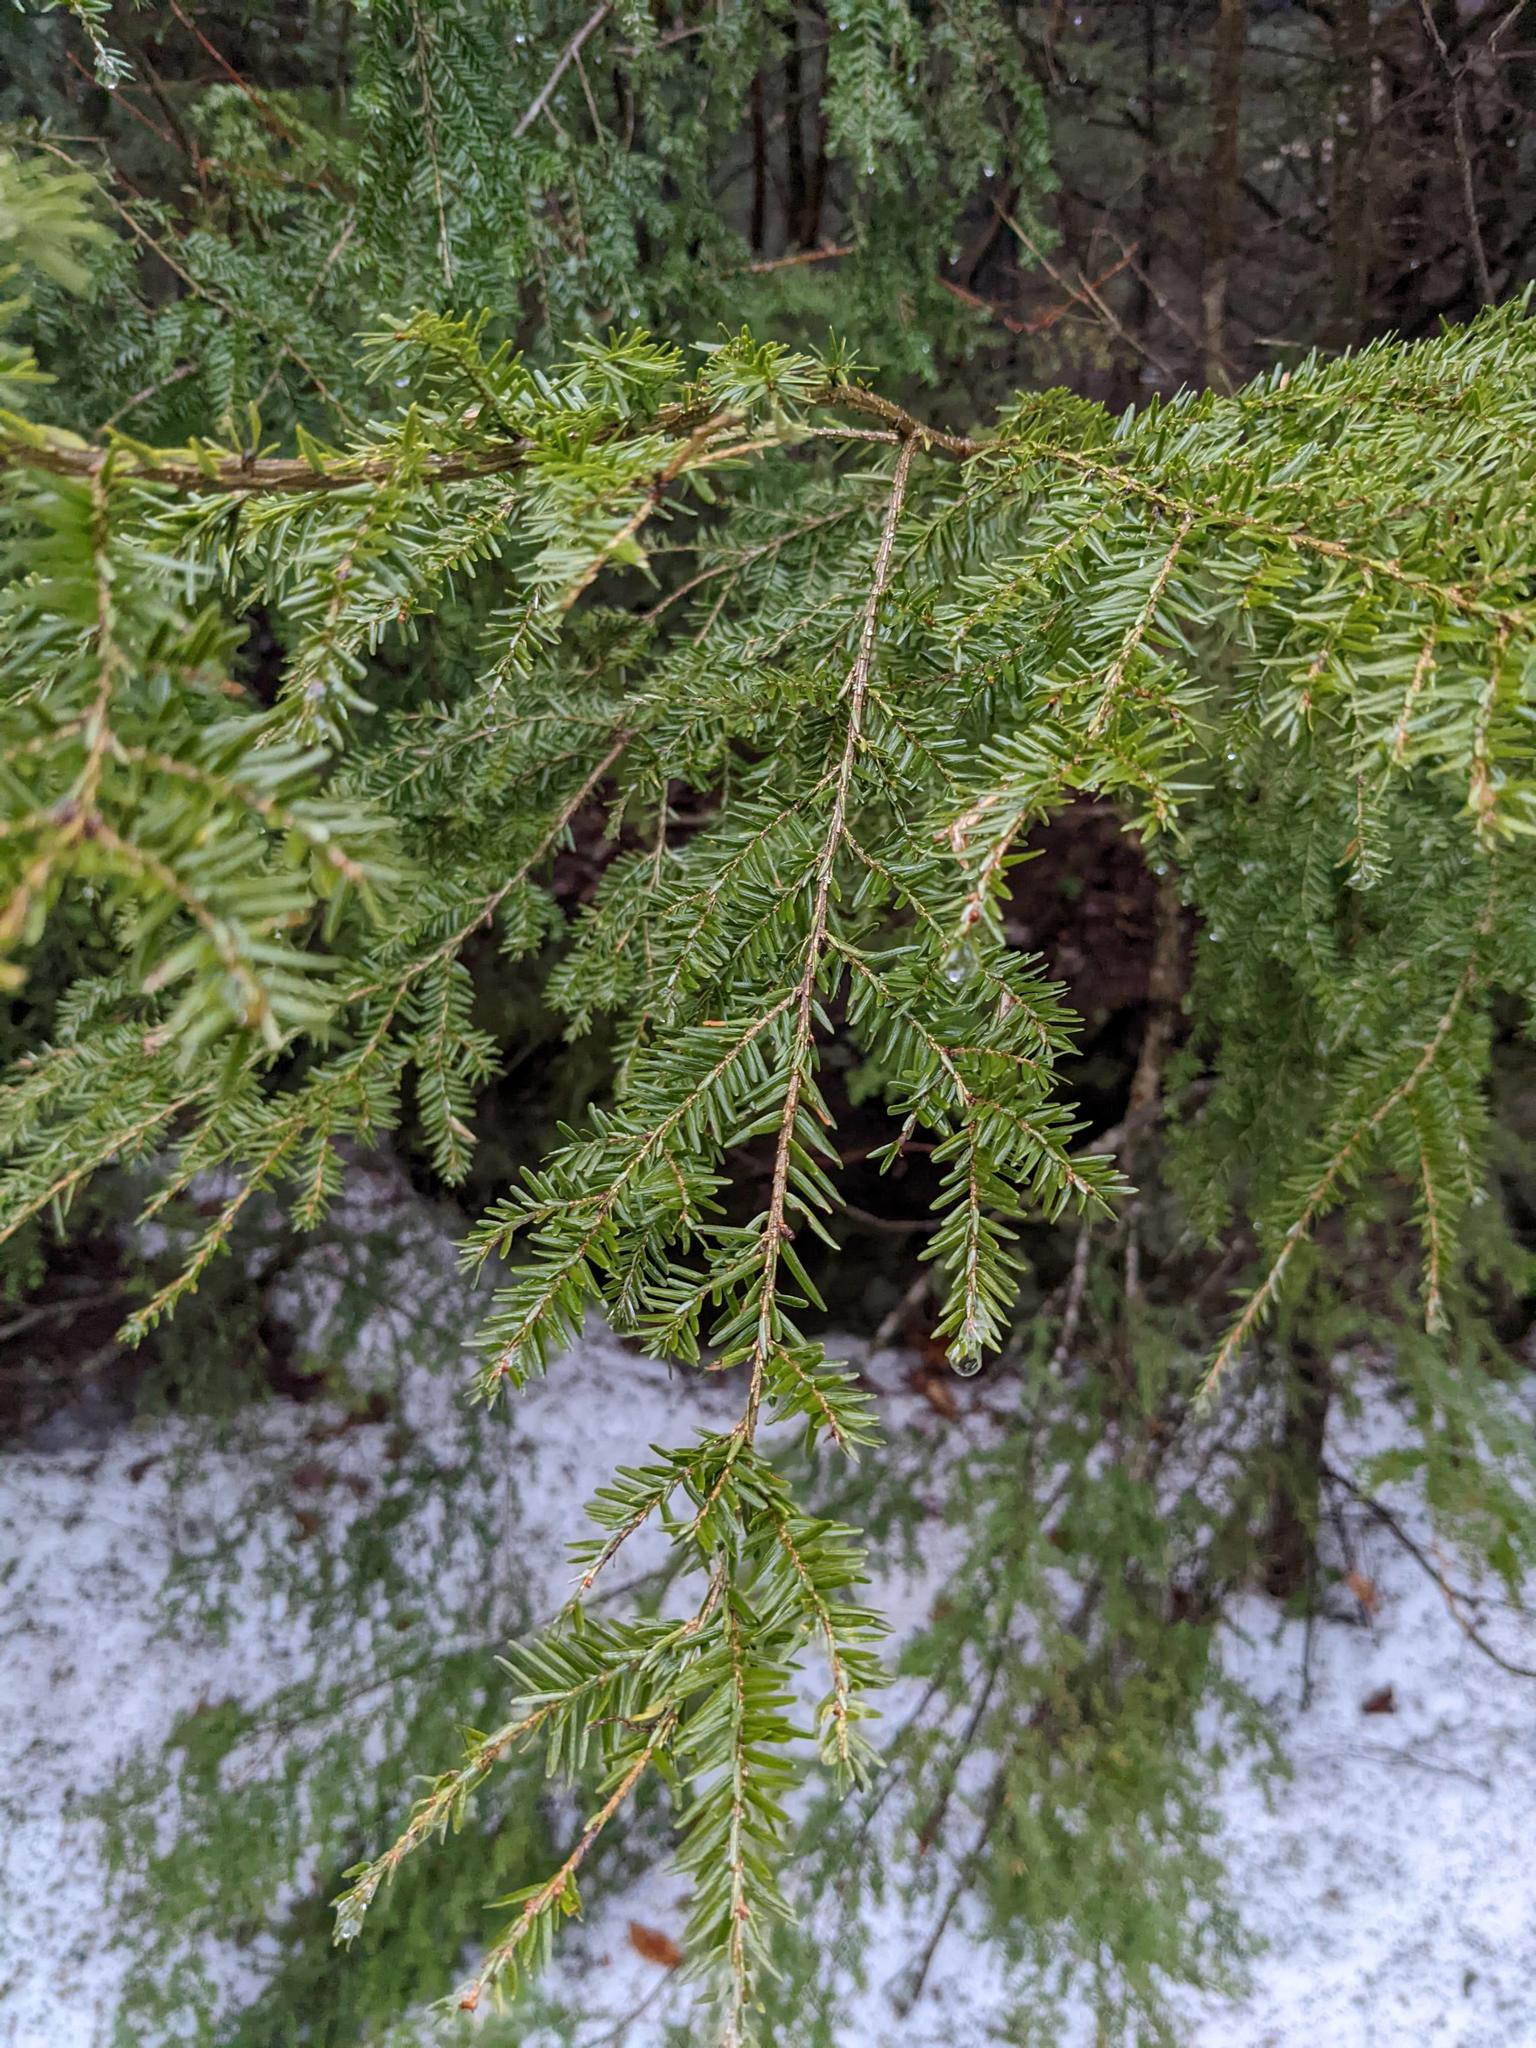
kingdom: Plantae
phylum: Tracheophyta
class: Pinopsida
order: Pinales
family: Pinaceae
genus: Tsuga
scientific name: Tsuga canadensis
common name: Eastern hemlock
